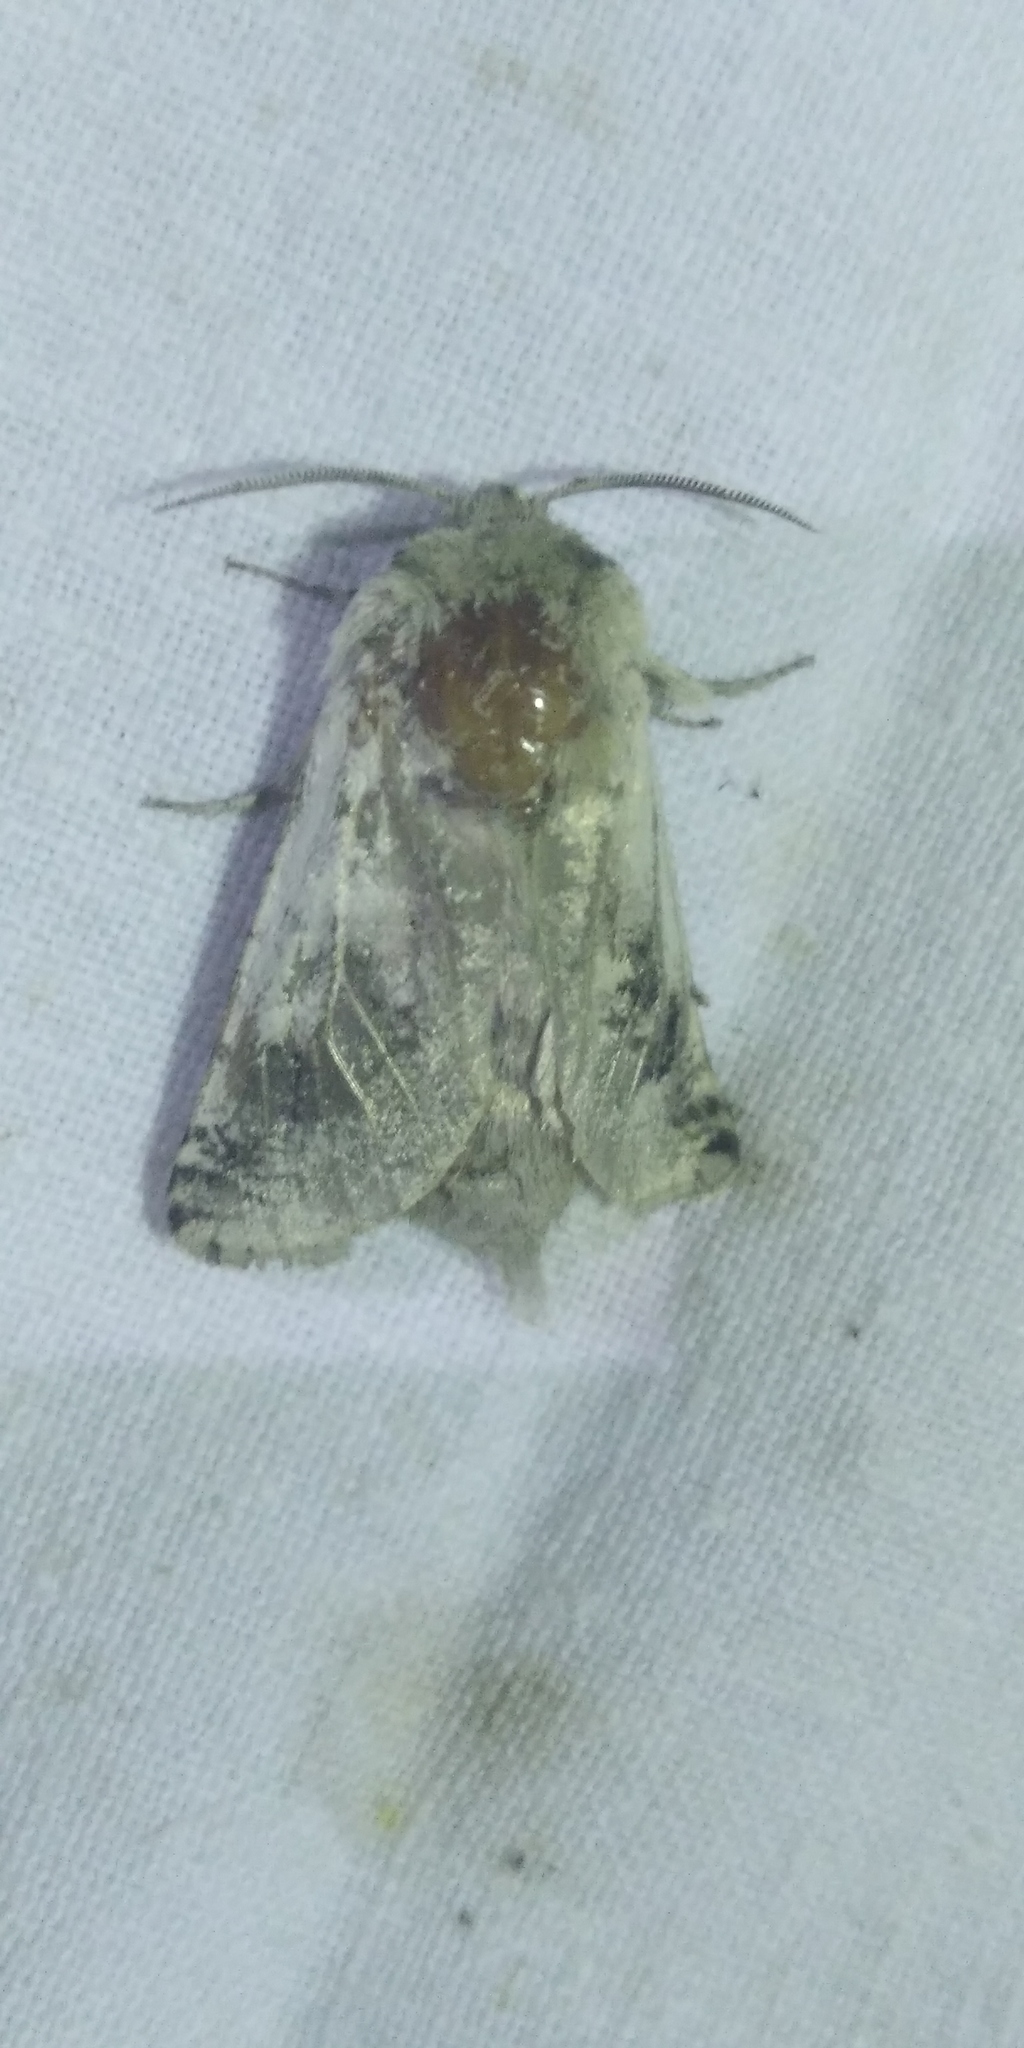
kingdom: Animalia
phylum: Arthropoda
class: Insecta
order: Lepidoptera
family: Cossidae
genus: Parahypopta
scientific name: Parahypopta caestrum
